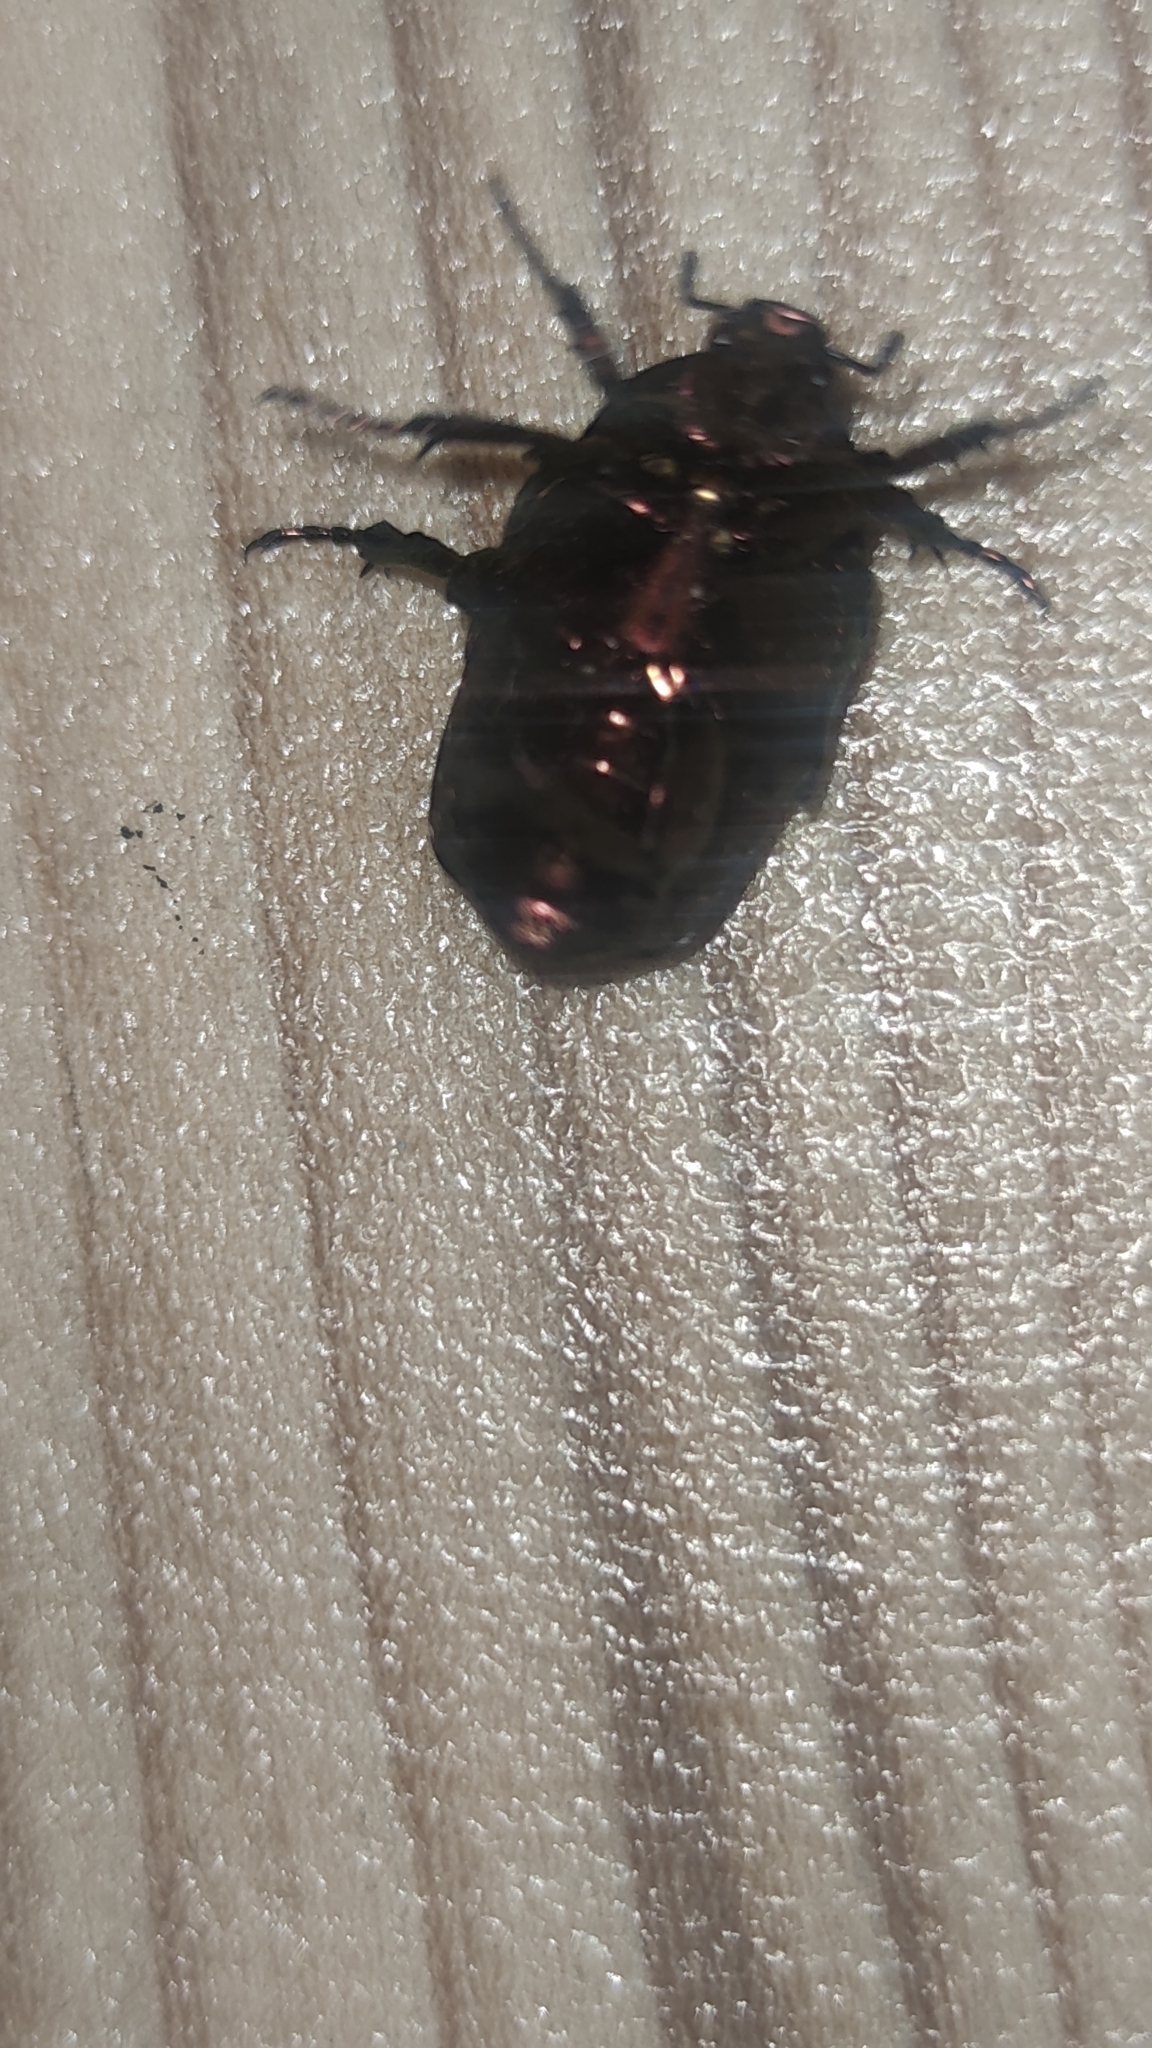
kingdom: Animalia
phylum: Arthropoda
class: Insecta
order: Coleoptera
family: Scarabaeidae
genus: Protaetia
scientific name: Protaetia fieberi
